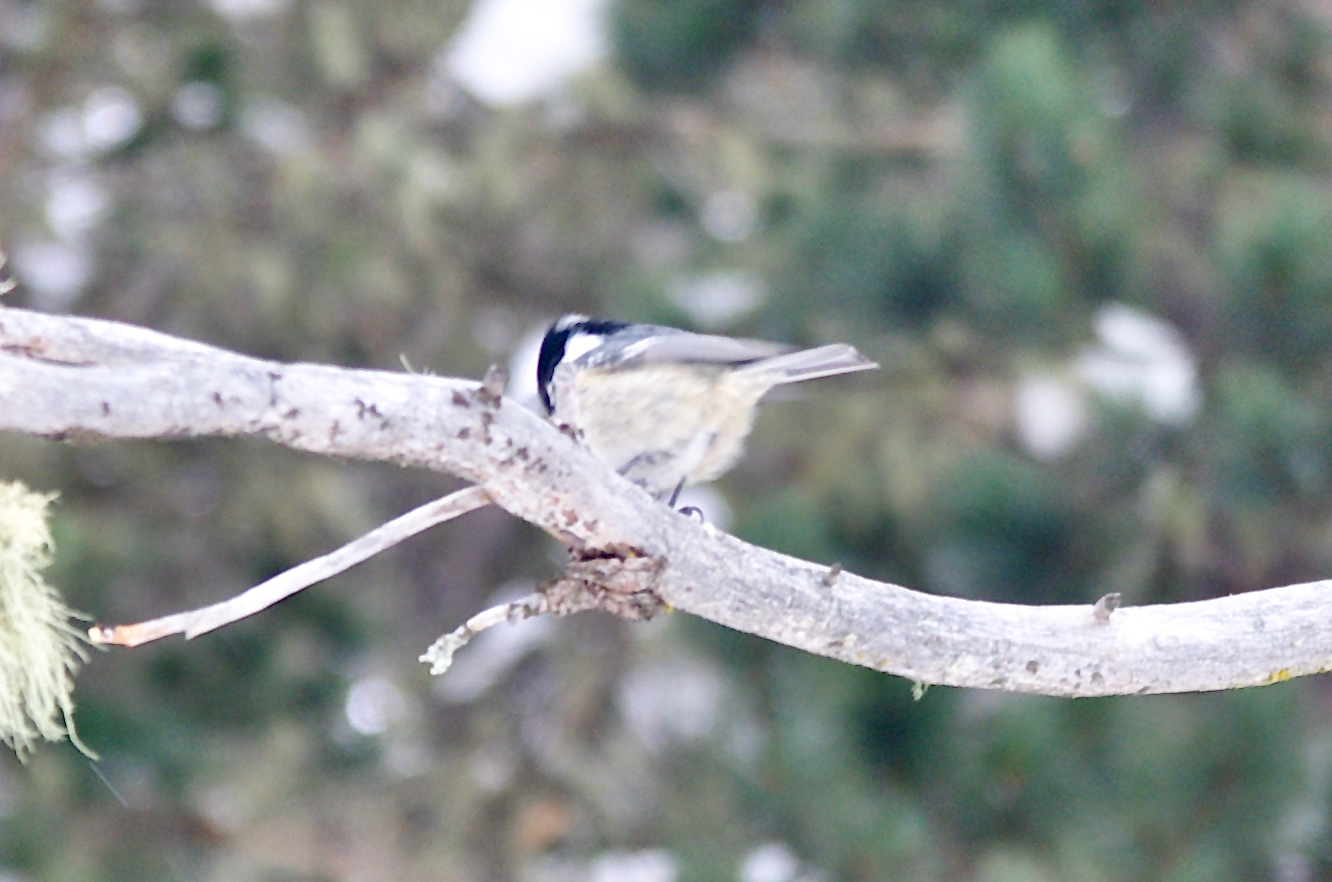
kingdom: Animalia
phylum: Chordata
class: Aves
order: Passeriformes
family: Paridae
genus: Periparus
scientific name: Periparus ater
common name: Coal tit
